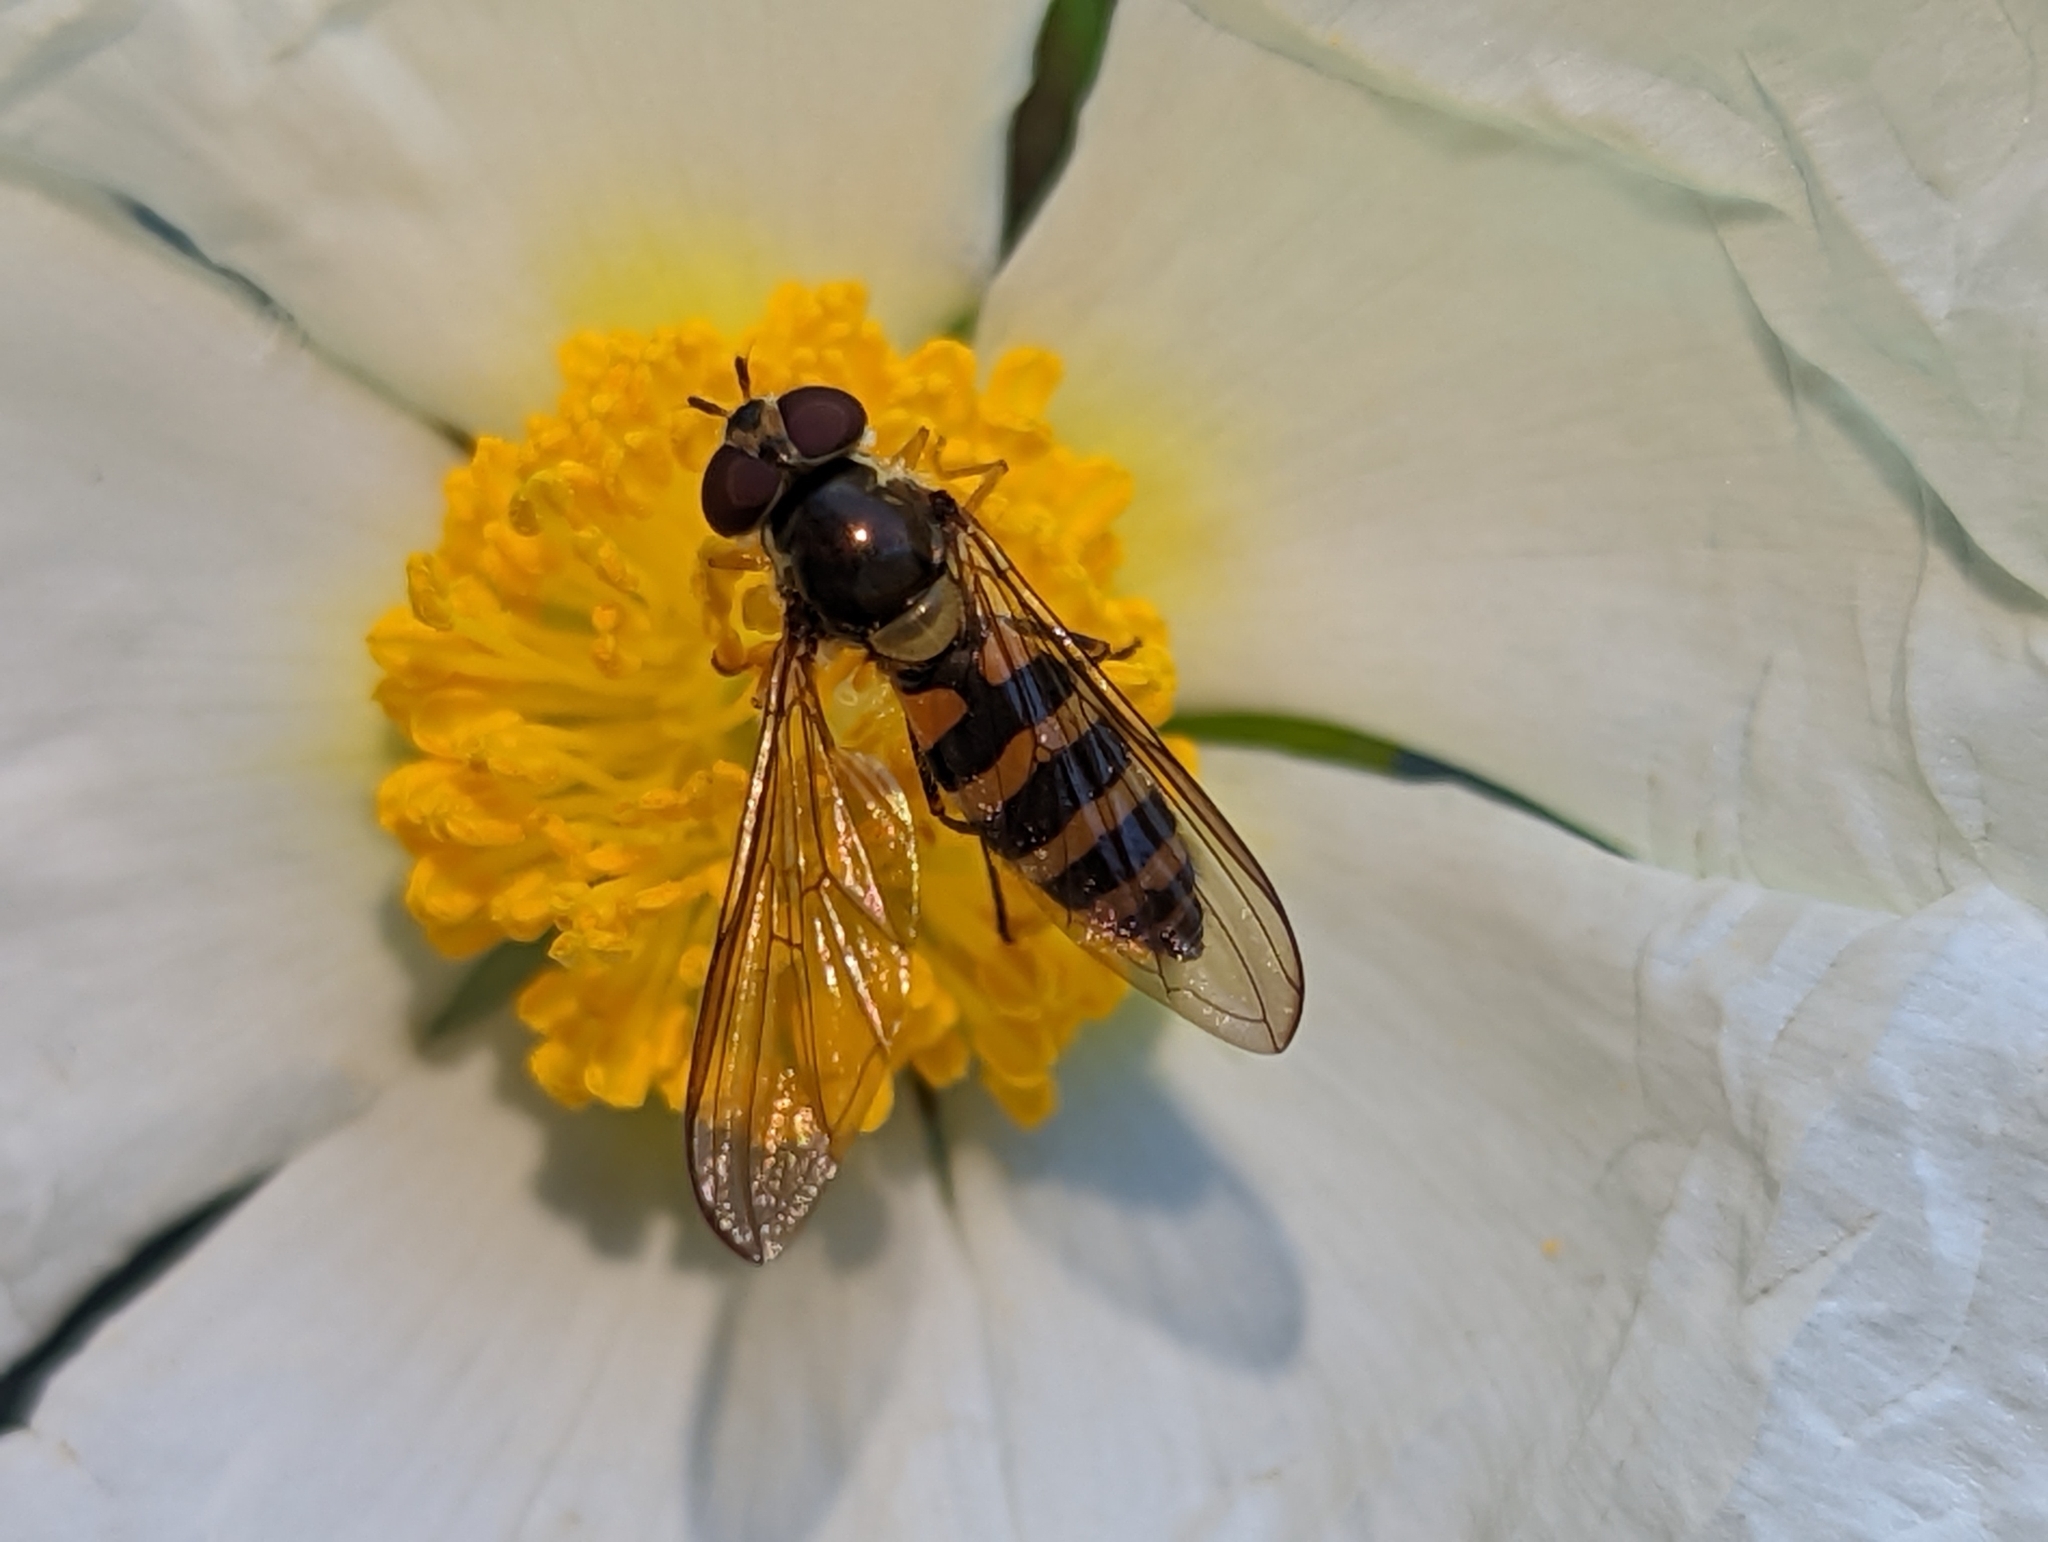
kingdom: Animalia
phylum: Arthropoda
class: Insecta
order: Diptera
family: Syrphidae
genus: Meliscaeva
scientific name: Meliscaeva cinctella
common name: American thintail fly
